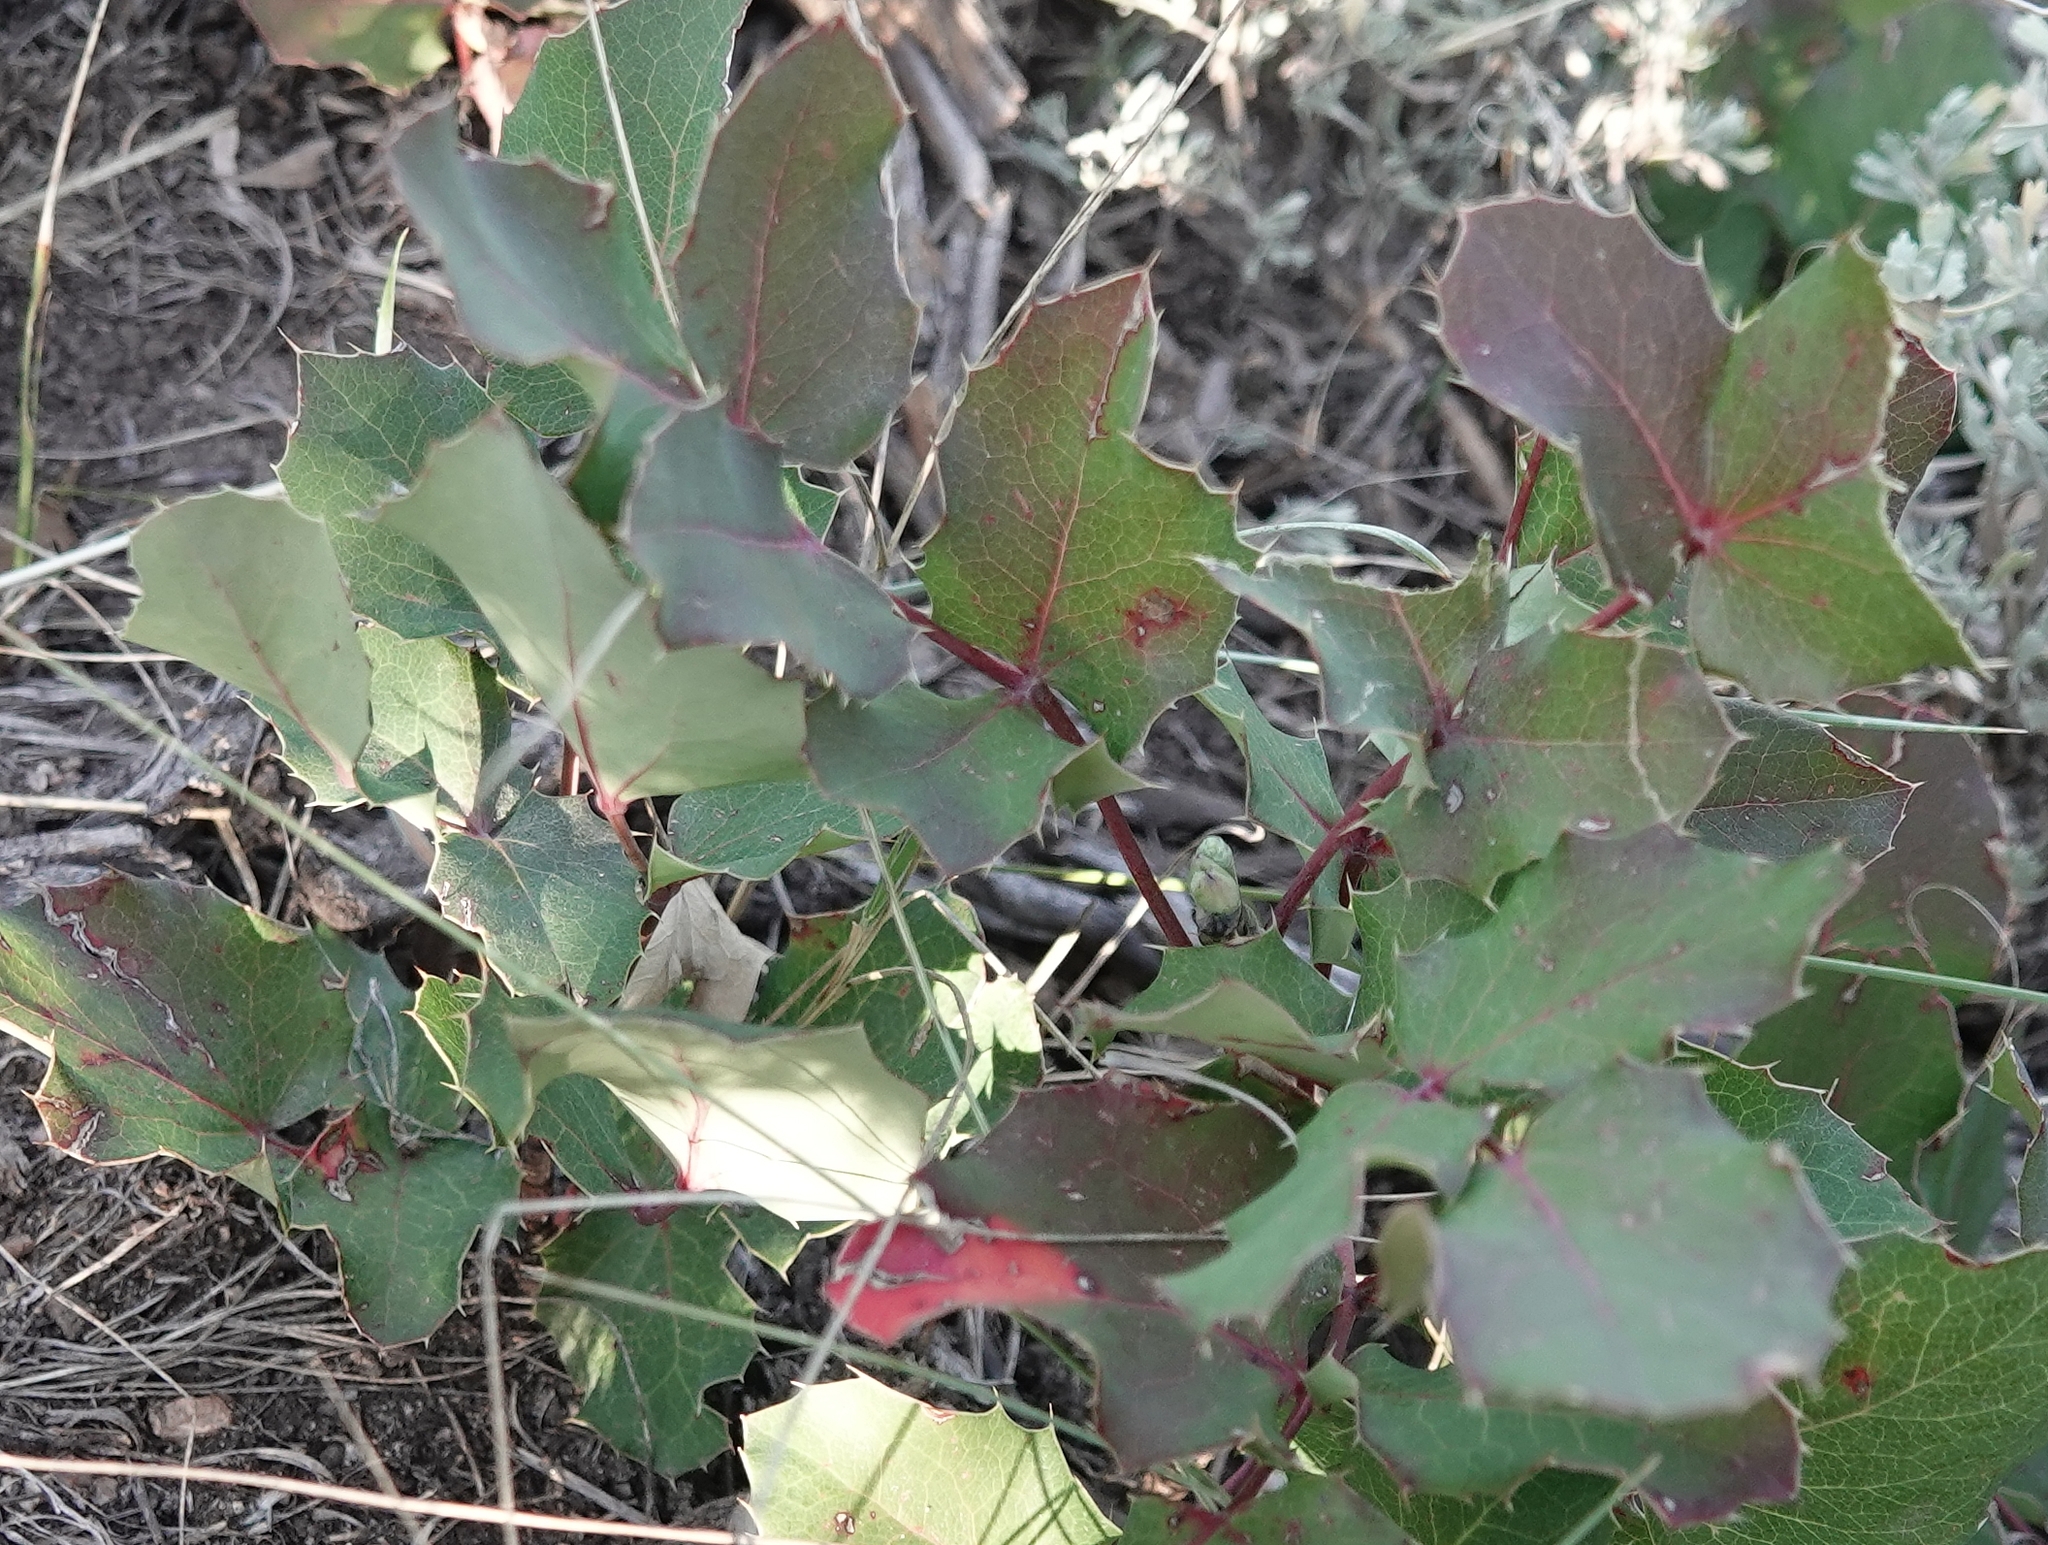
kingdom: Plantae
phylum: Tracheophyta
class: Magnoliopsida
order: Ranunculales
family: Berberidaceae
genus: Mahonia
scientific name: Mahonia repens
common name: Creeping oregon-grape
